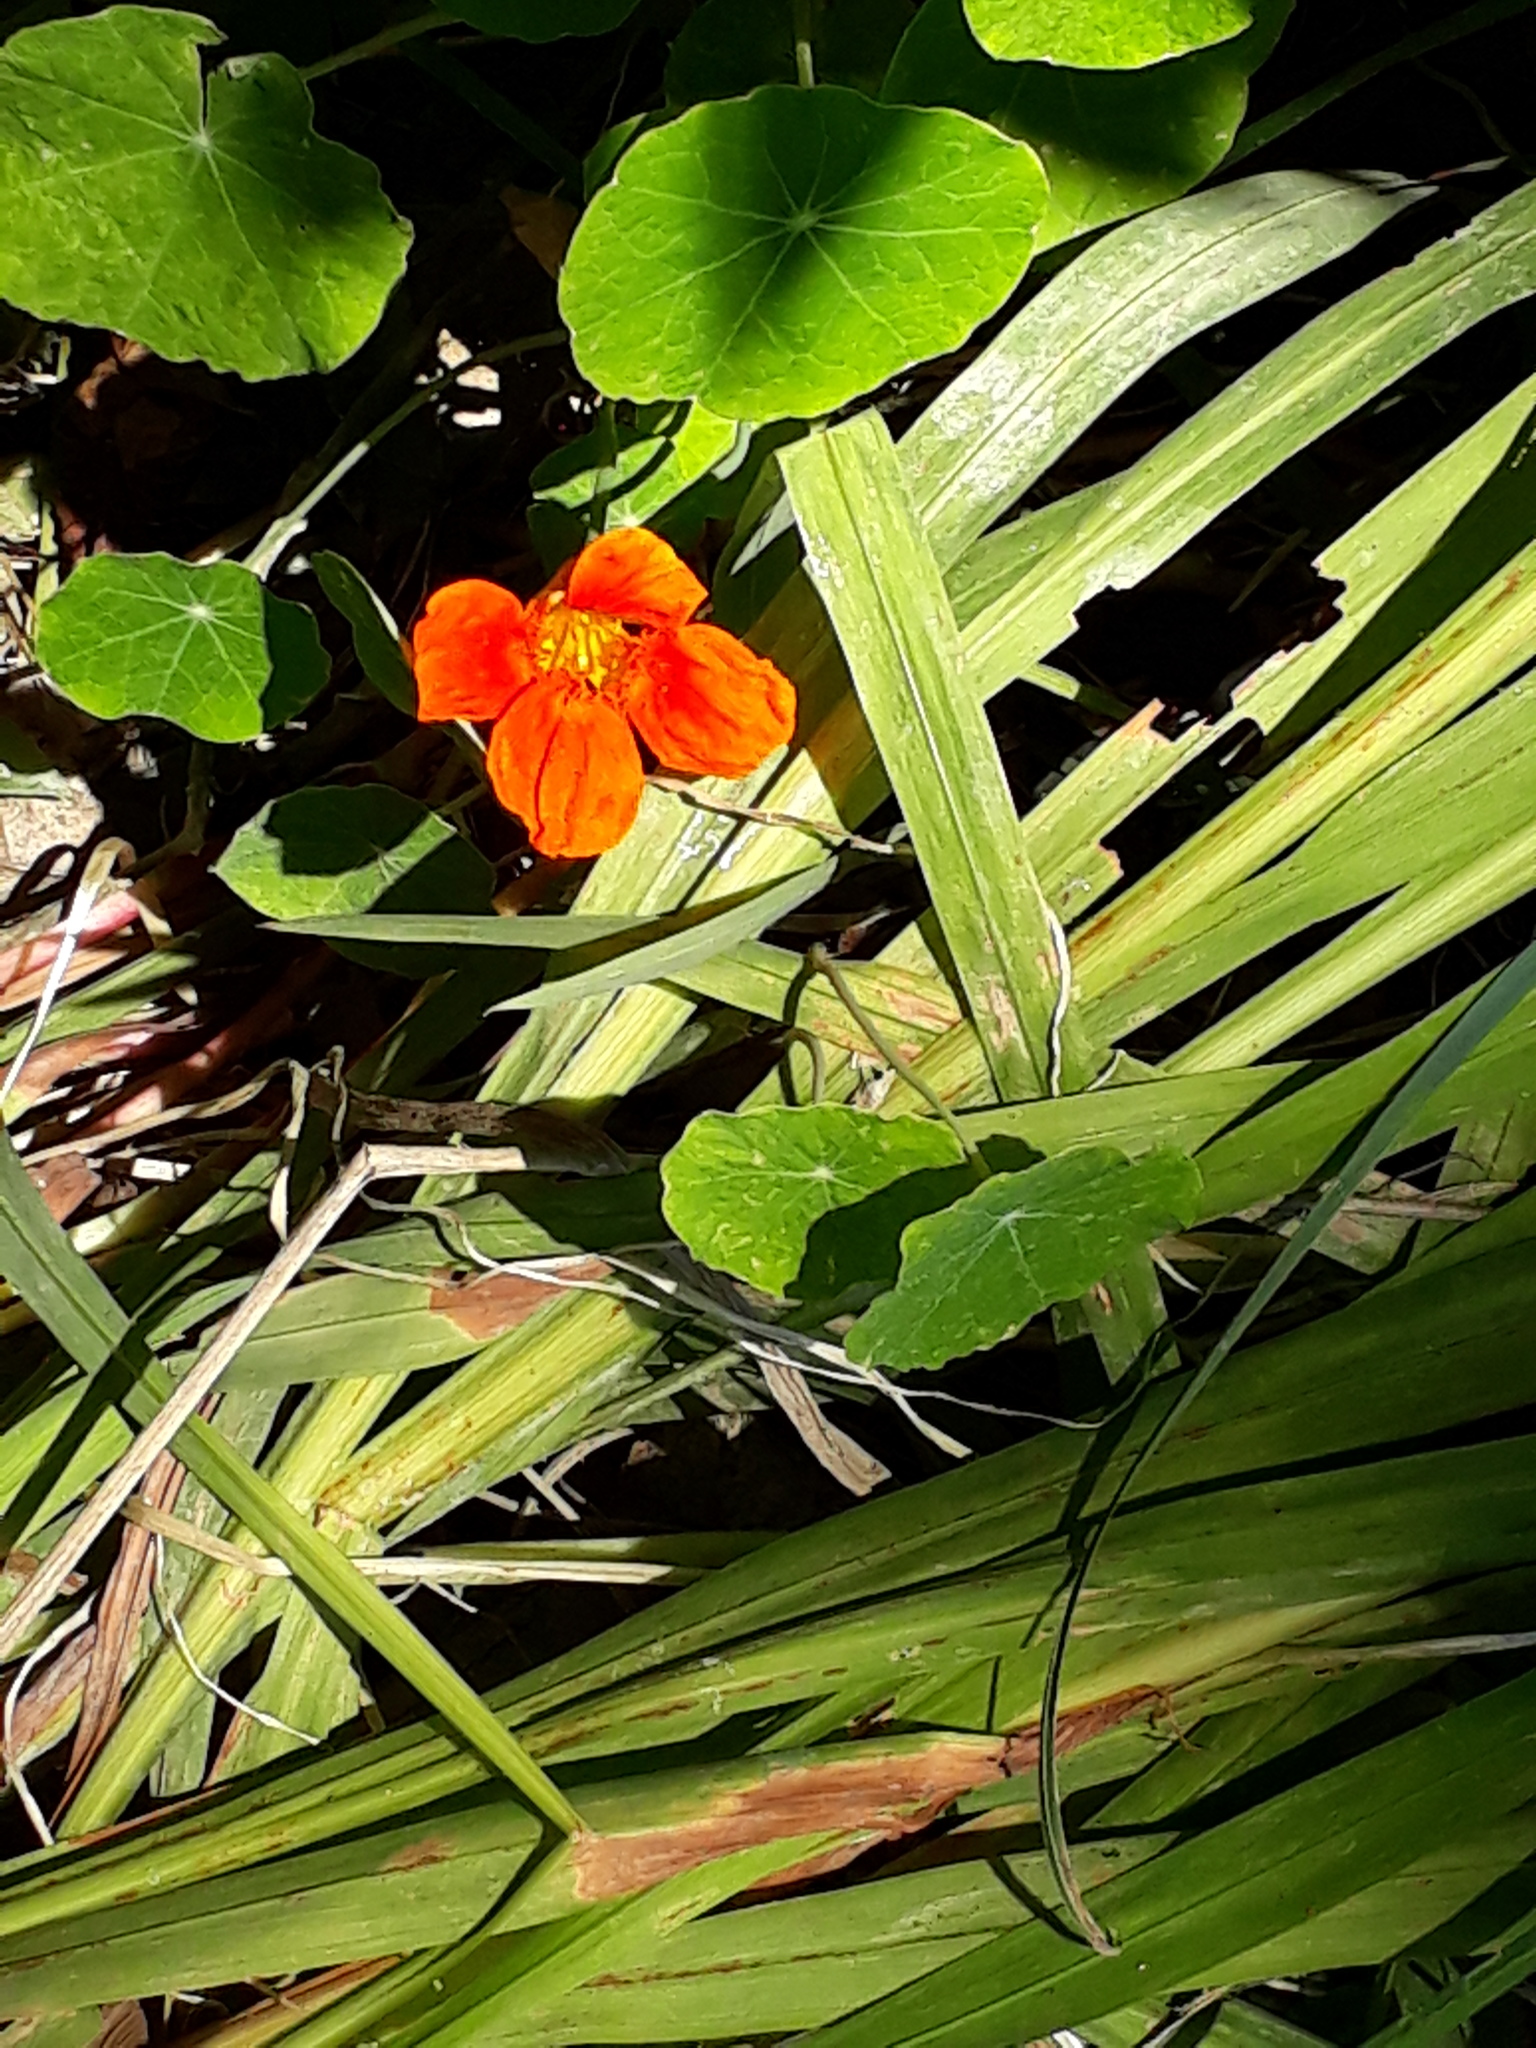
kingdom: Plantae
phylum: Tracheophyta
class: Magnoliopsida
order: Brassicales
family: Tropaeolaceae
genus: Tropaeolum
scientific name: Tropaeolum majus
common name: Nasturtium
